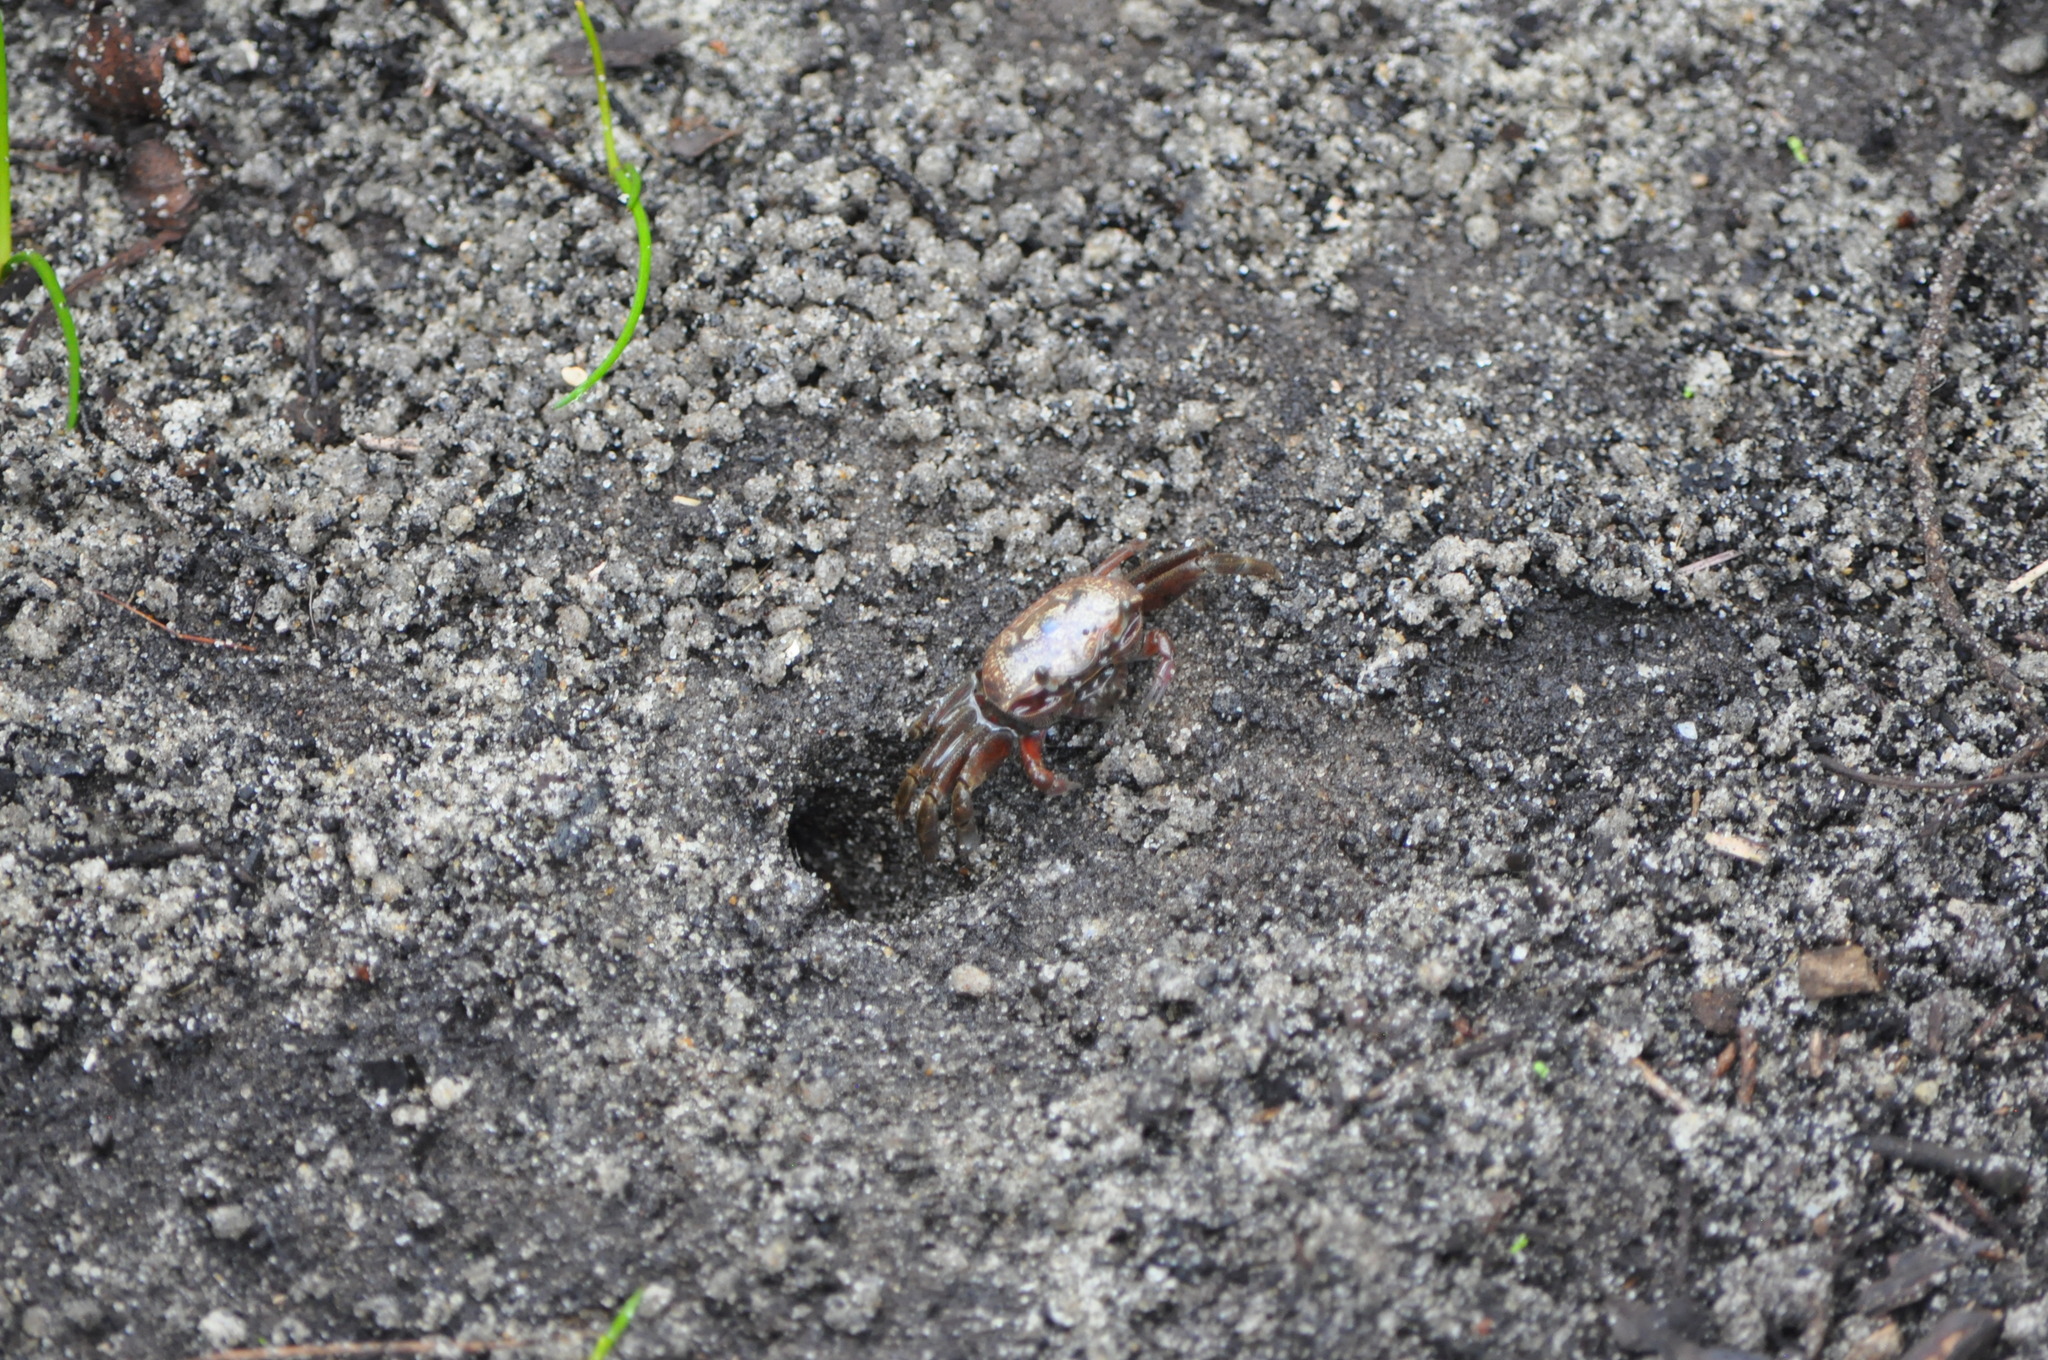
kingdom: Animalia
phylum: Arthropoda
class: Malacostraca
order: Decapoda
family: Ocypodidae
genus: Leptuca
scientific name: Leptuca pugilator
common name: Atlantic sand fiddler crab
